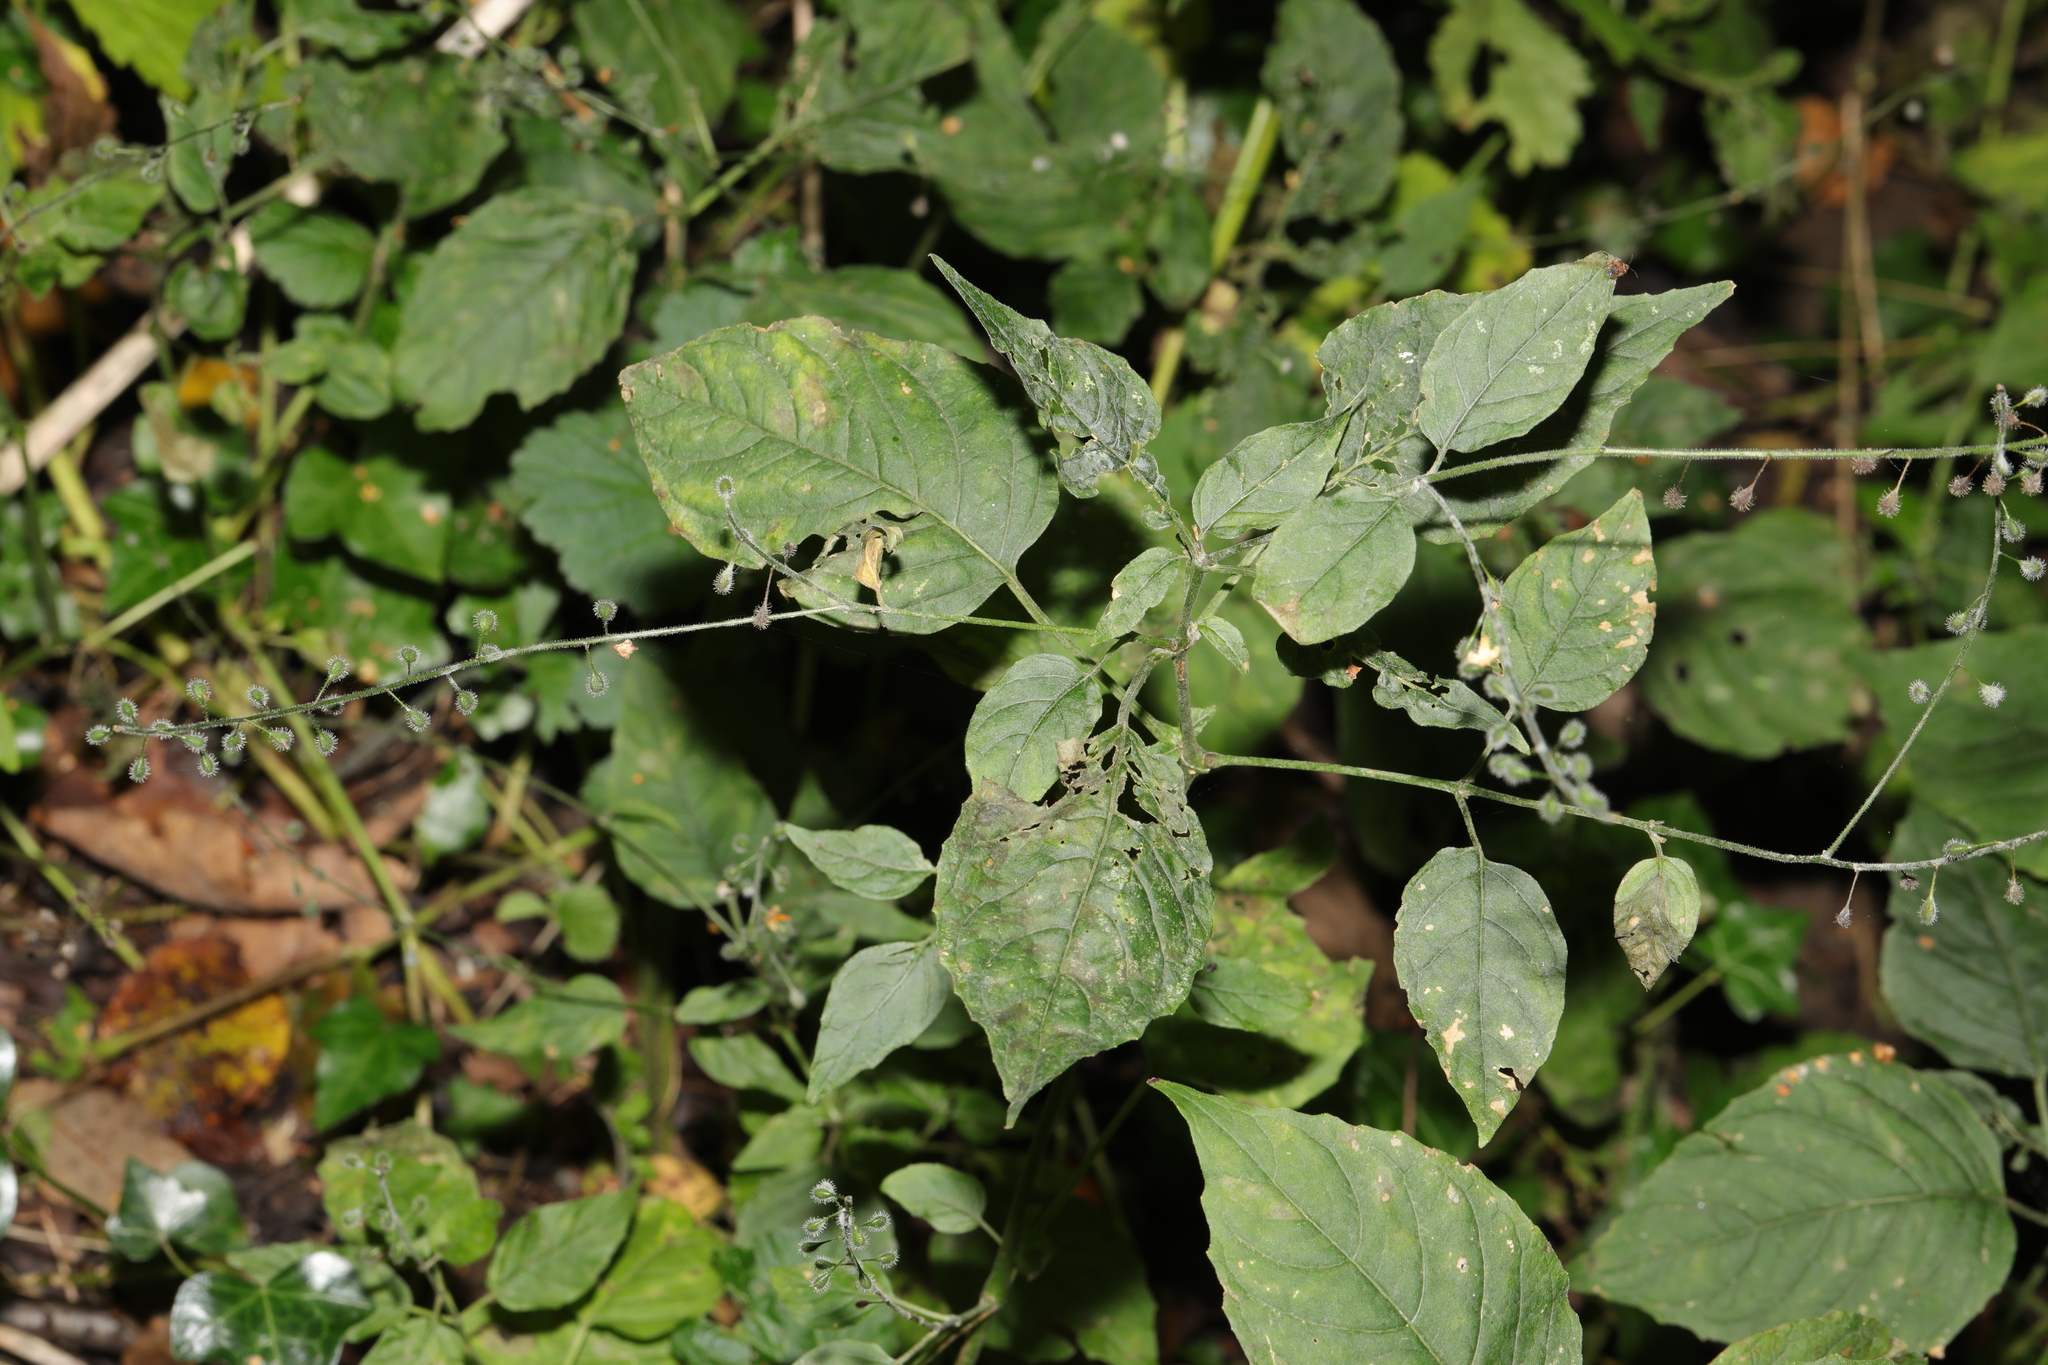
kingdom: Plantae
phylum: Tracheophyta
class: Magnoliopsida
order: Myrtales
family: Onagraceae
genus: Circaea
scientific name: Circaea lutetiana
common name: Enchanter's-nightshade
